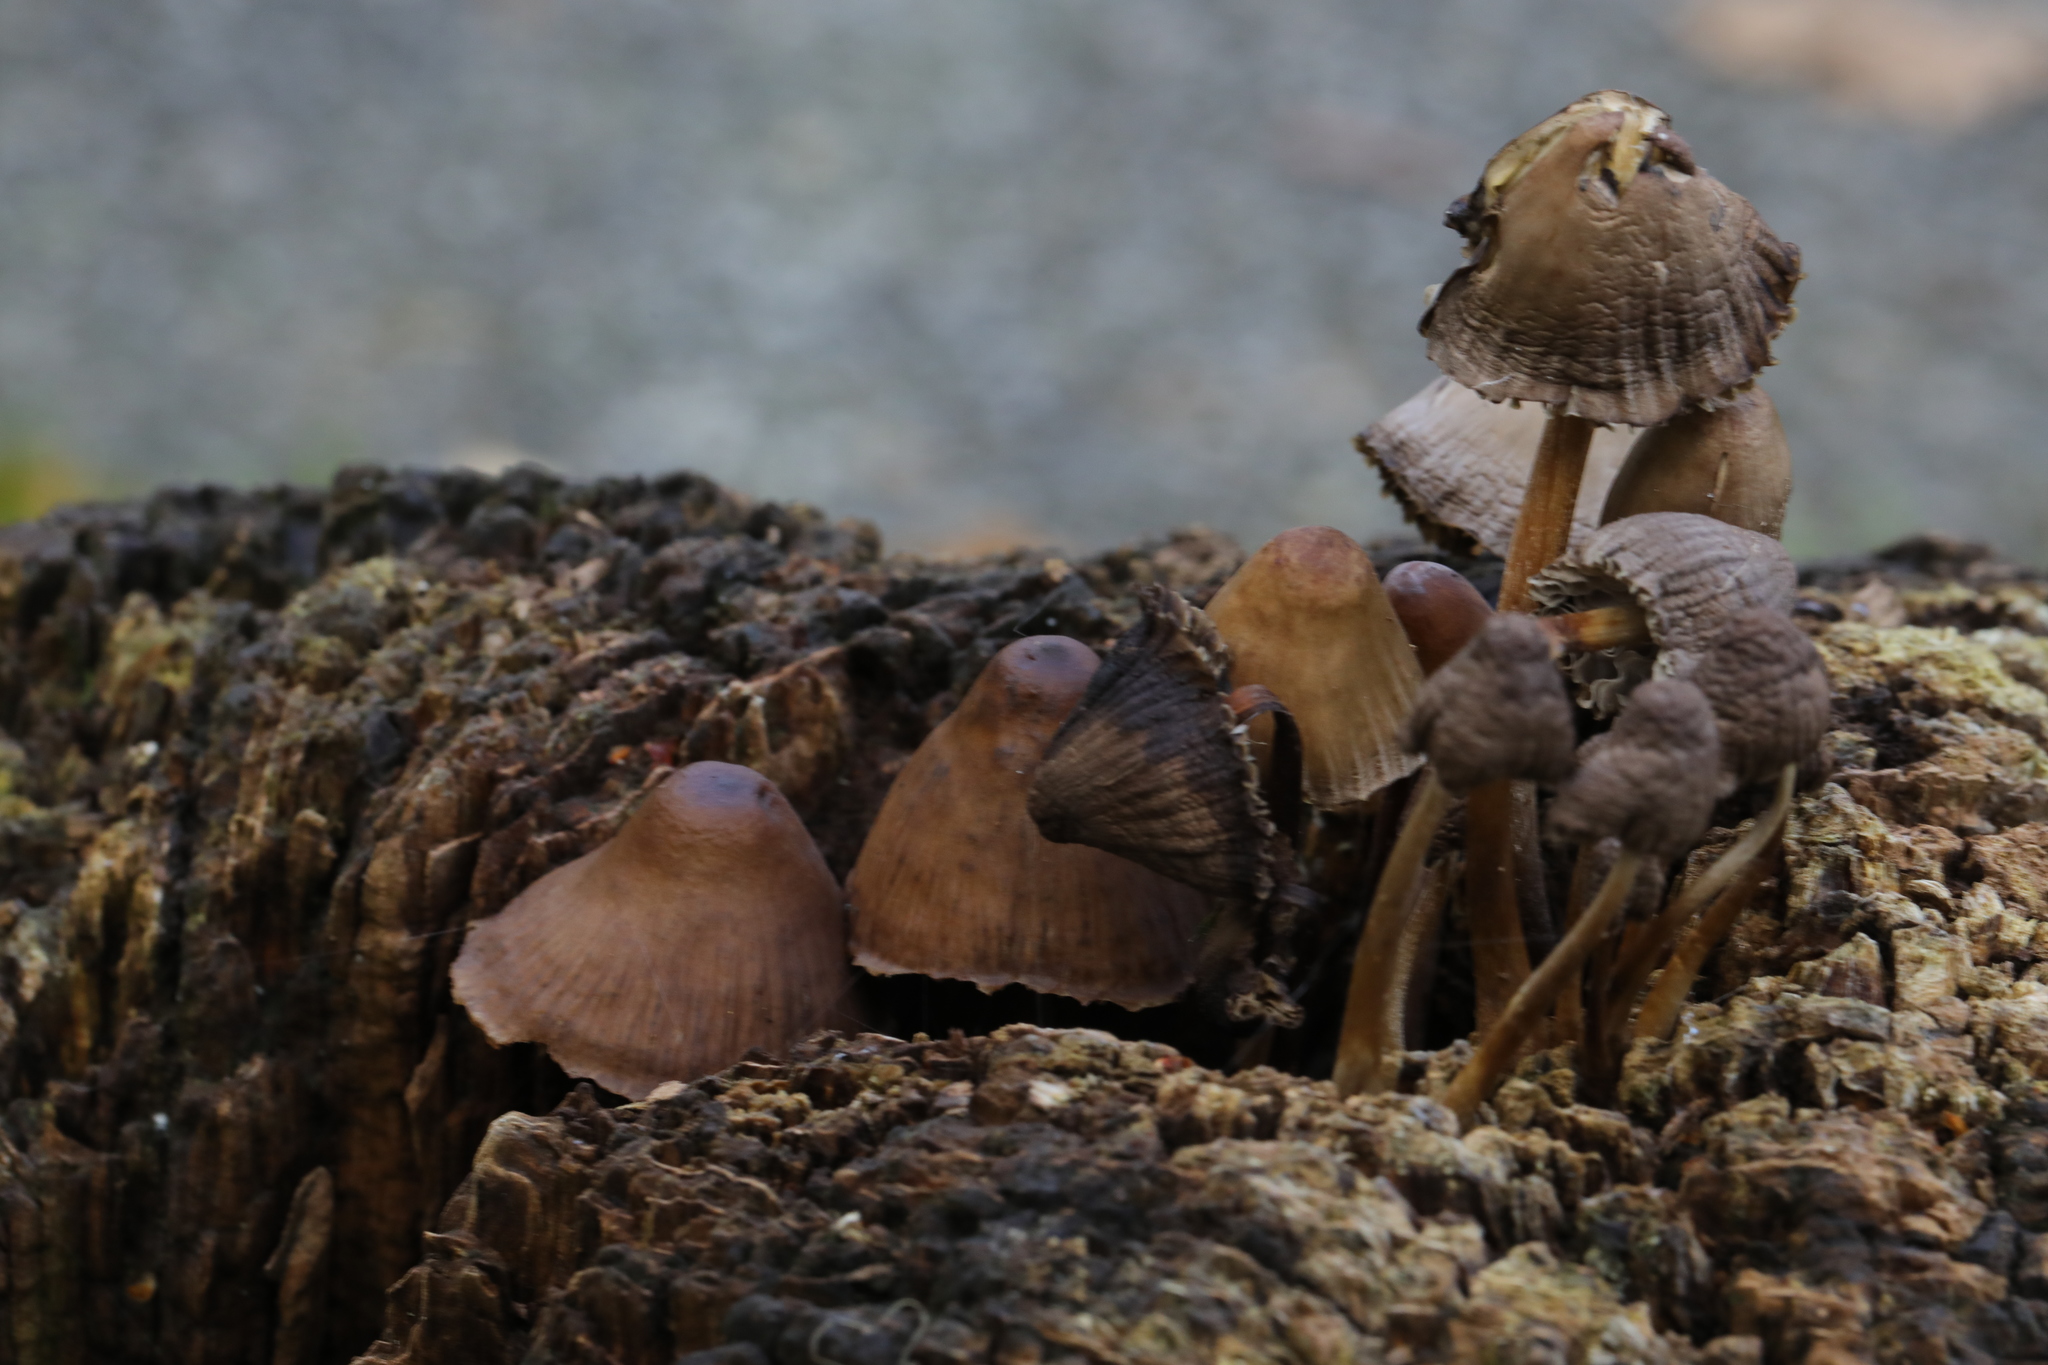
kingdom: Fungi
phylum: Basidiomycota
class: Agaricomycetes
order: Agaricales
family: Mycenaceae
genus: Mycena
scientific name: Mycena
